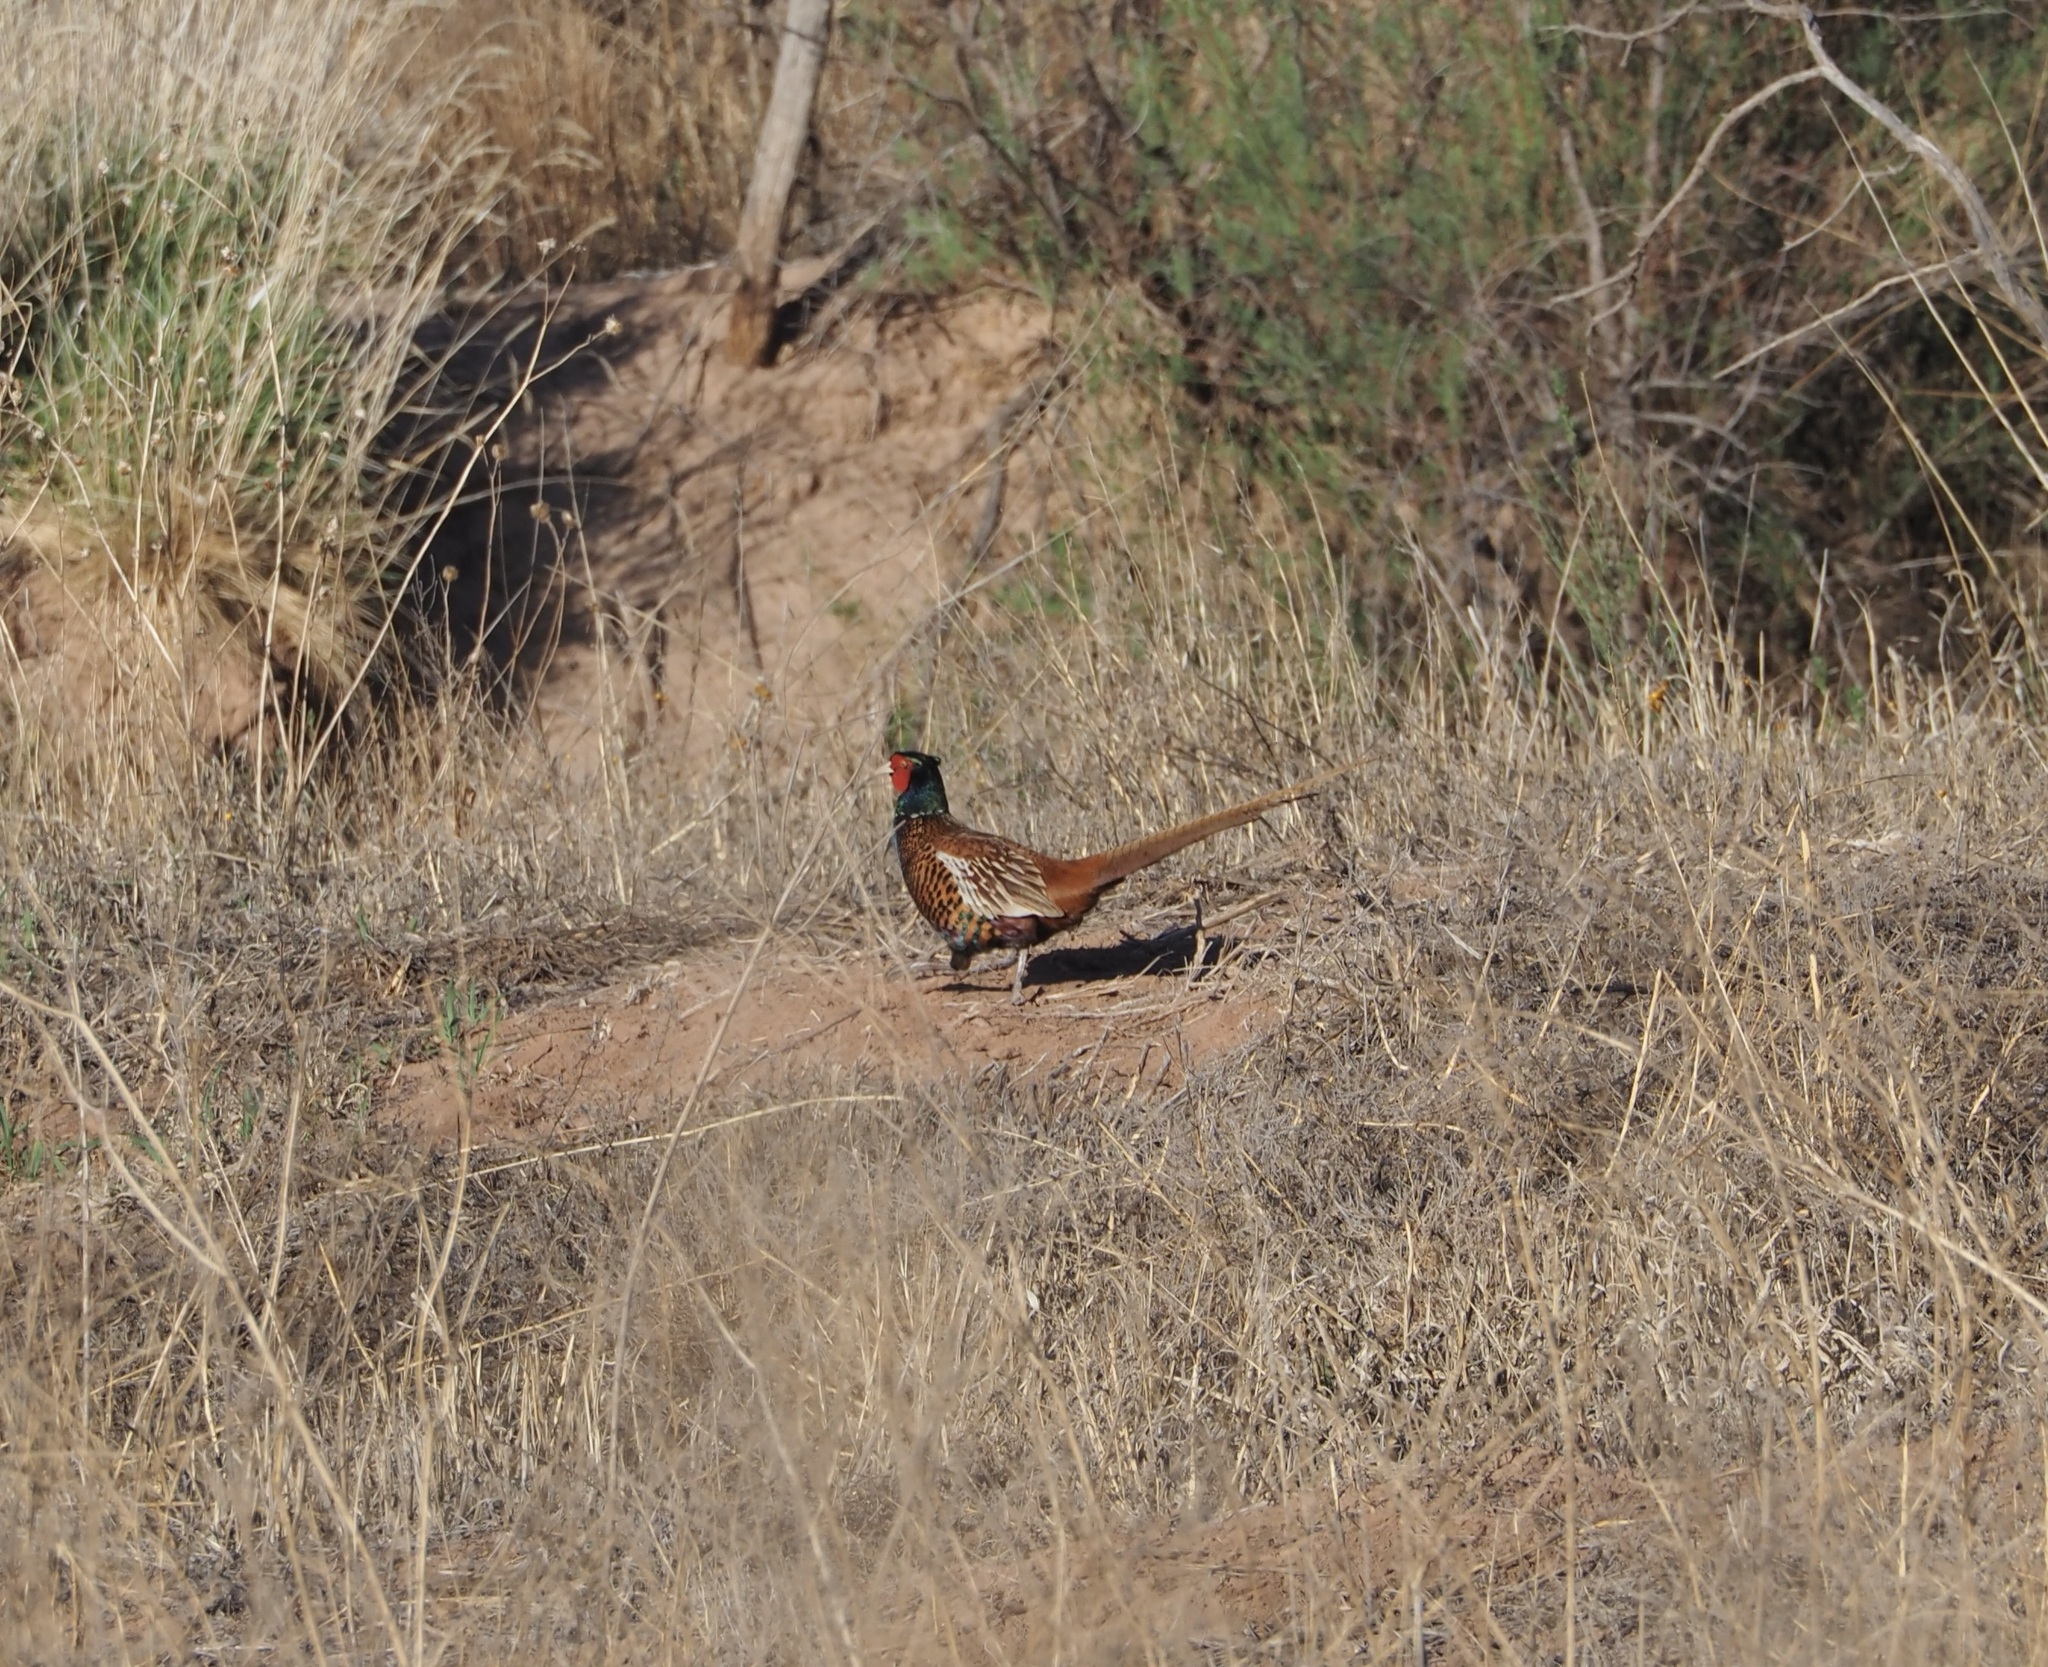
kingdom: Animalia
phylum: Chordata
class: Aves
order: Galliformes
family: Phasianidae
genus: Phasianus
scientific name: Phasianus colchicus
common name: Common pheasant
